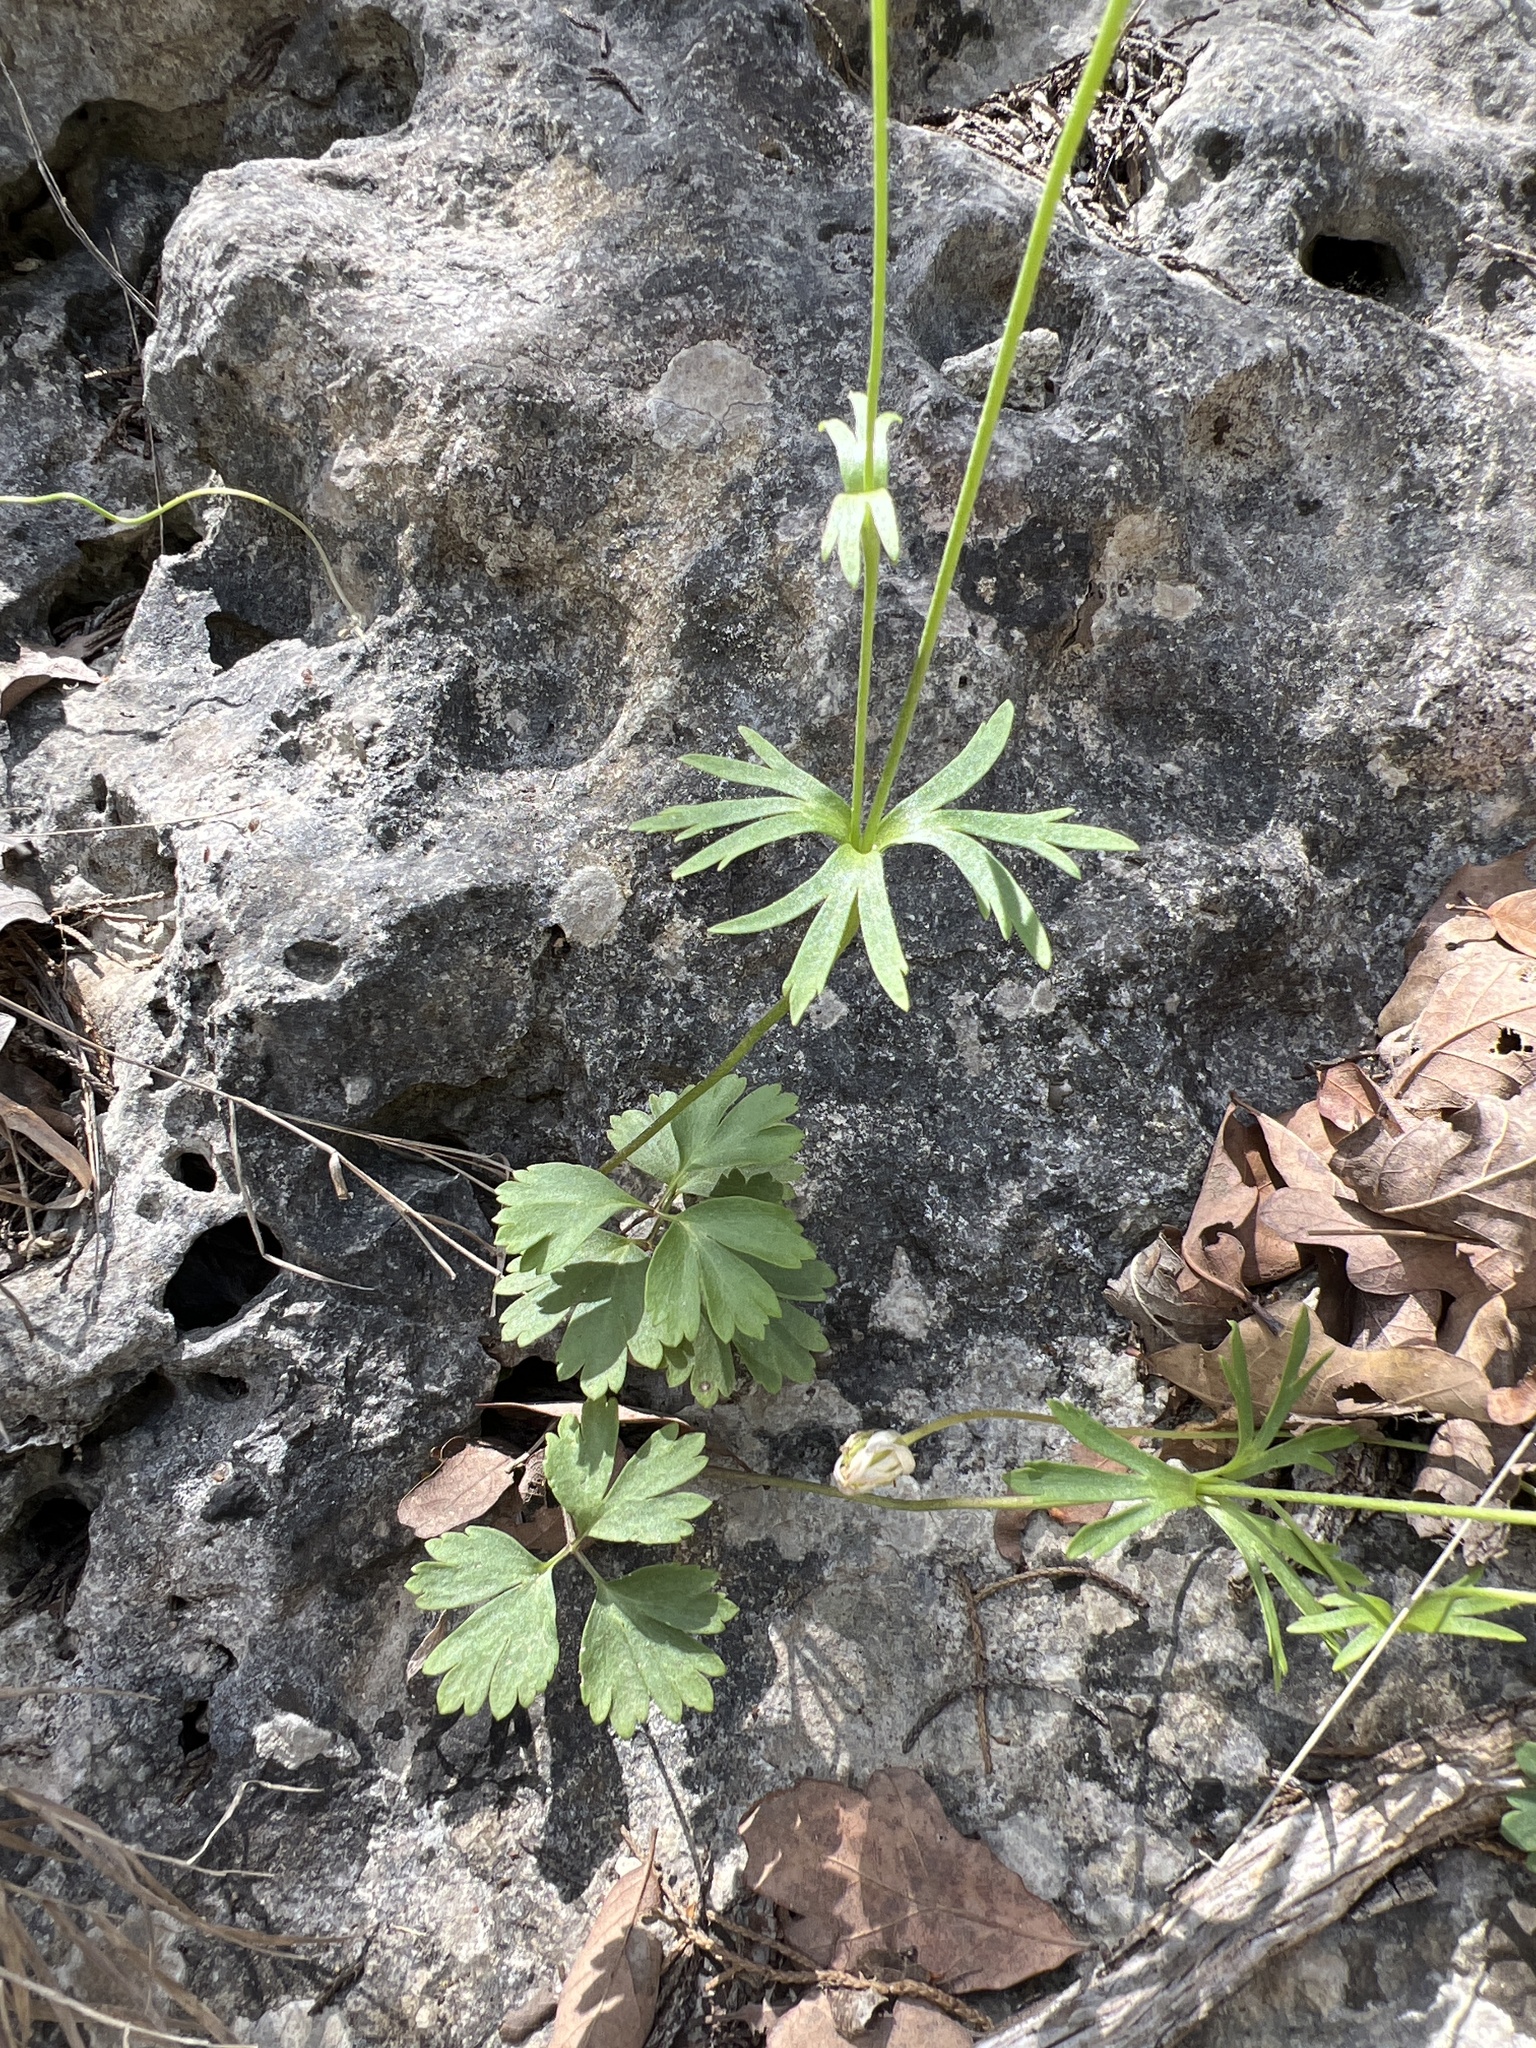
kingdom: Plantae
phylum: Tracheophyta
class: Magnoliopsida
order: Ranunculales
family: Ranunculaceae
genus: Anemone
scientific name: Anemone edwardsiana
